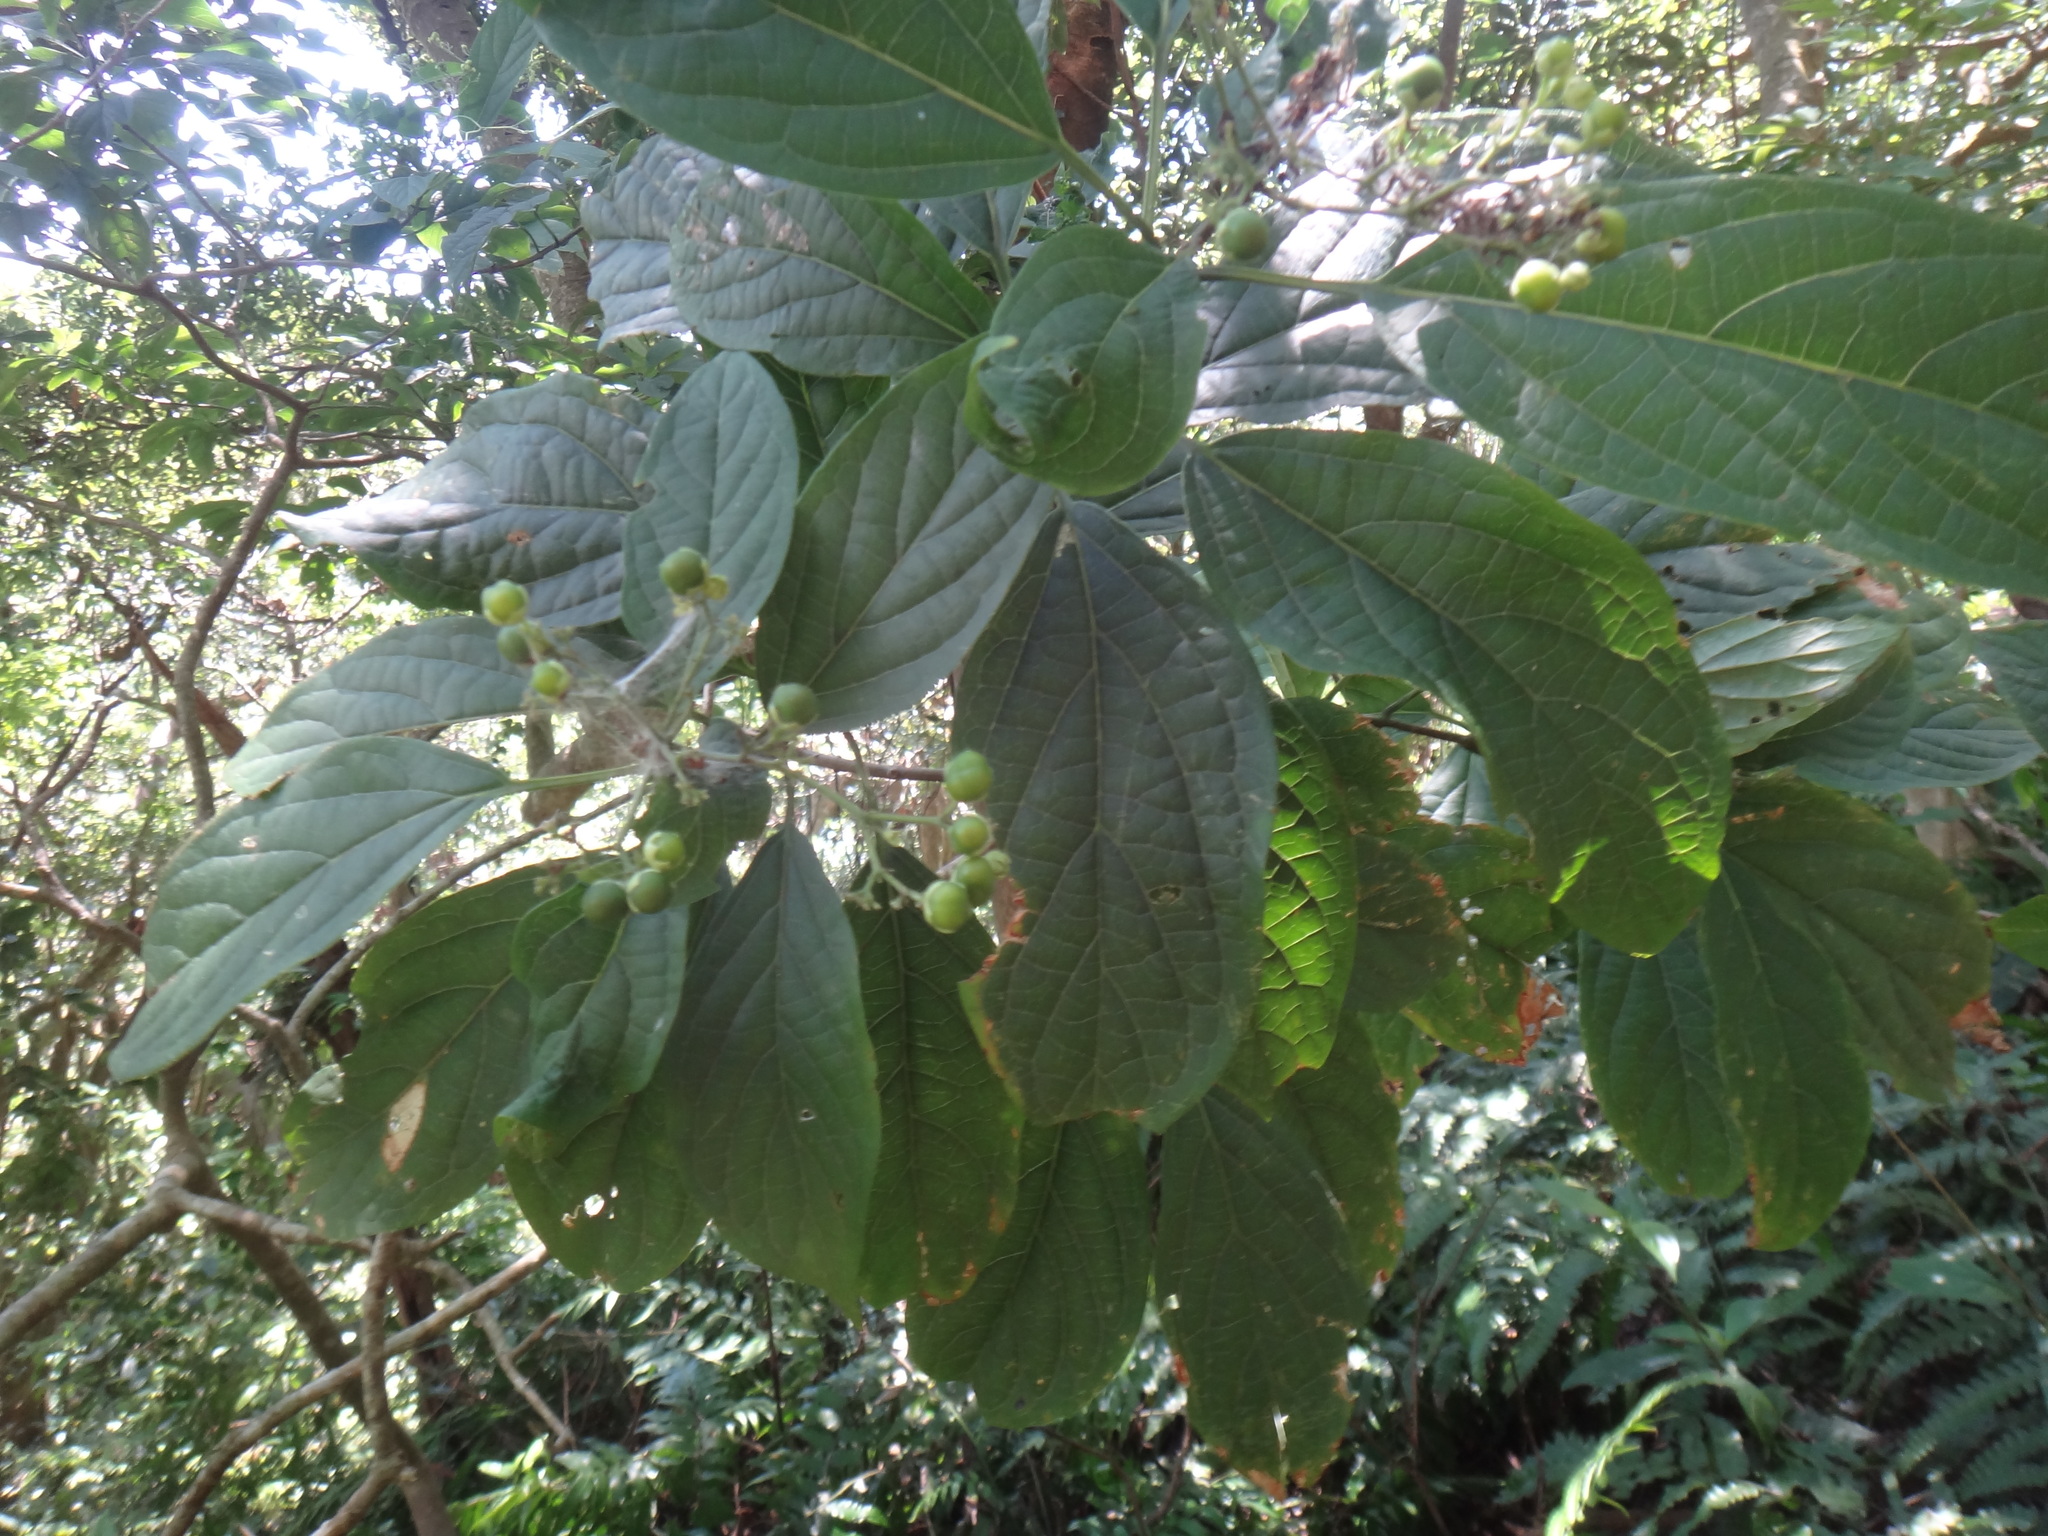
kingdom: Plantae
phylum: Tracheophyta
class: Magnoliopsida
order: Lamiales
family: Lamiaceae
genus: Clerodendrum
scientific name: Clerodendrum cyrtophyllum
